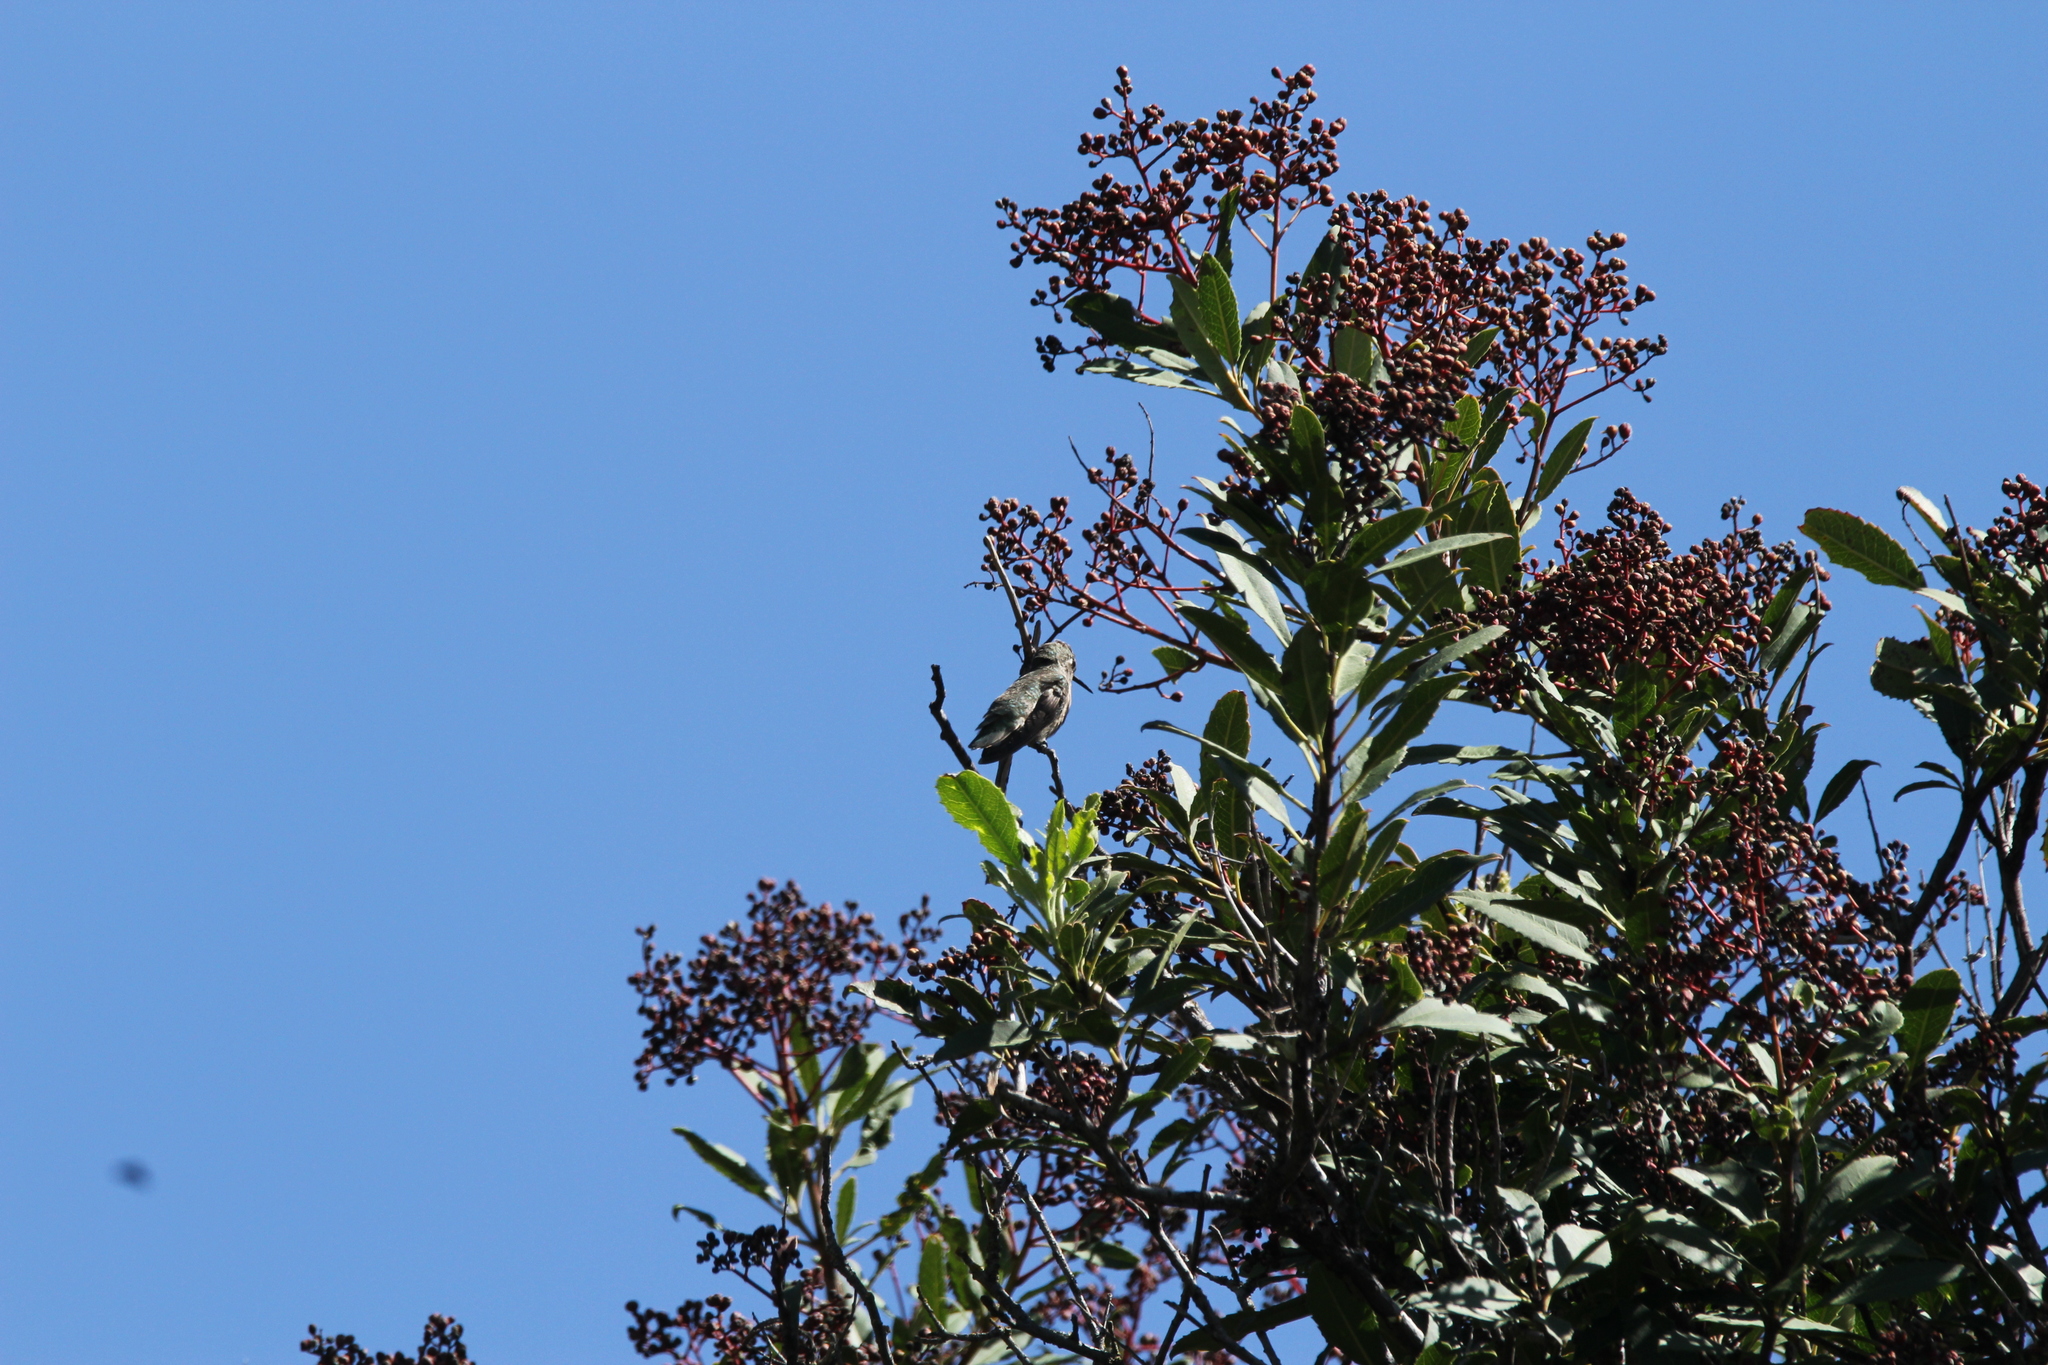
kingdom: Animalia
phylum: Chordata
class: Aves
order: Apodiformes
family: Trochilidae
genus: Calypte
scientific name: Calypte anna
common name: Anna's hummingbird
